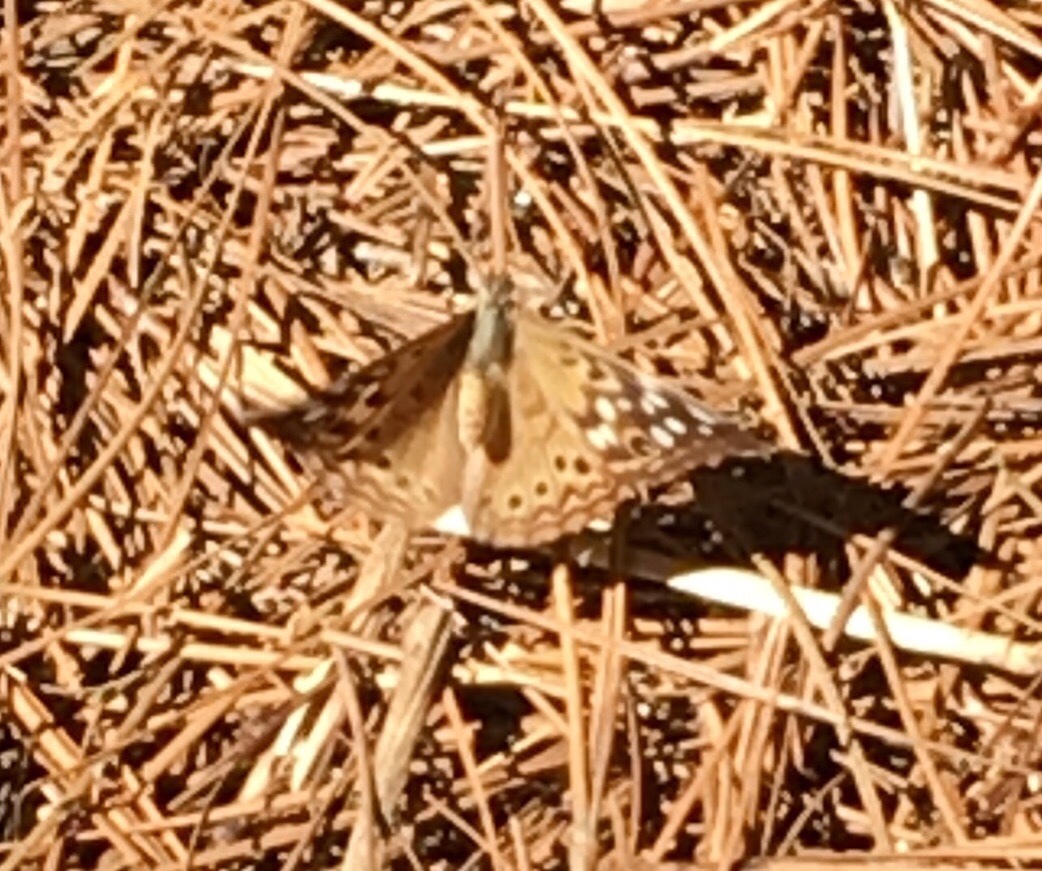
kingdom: Animalia
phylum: Arthropoda
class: Insecta
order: Lepidoptera
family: Nymphalidae
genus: Asterocampa
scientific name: Asterocampa celtis
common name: Hackberry emperor
